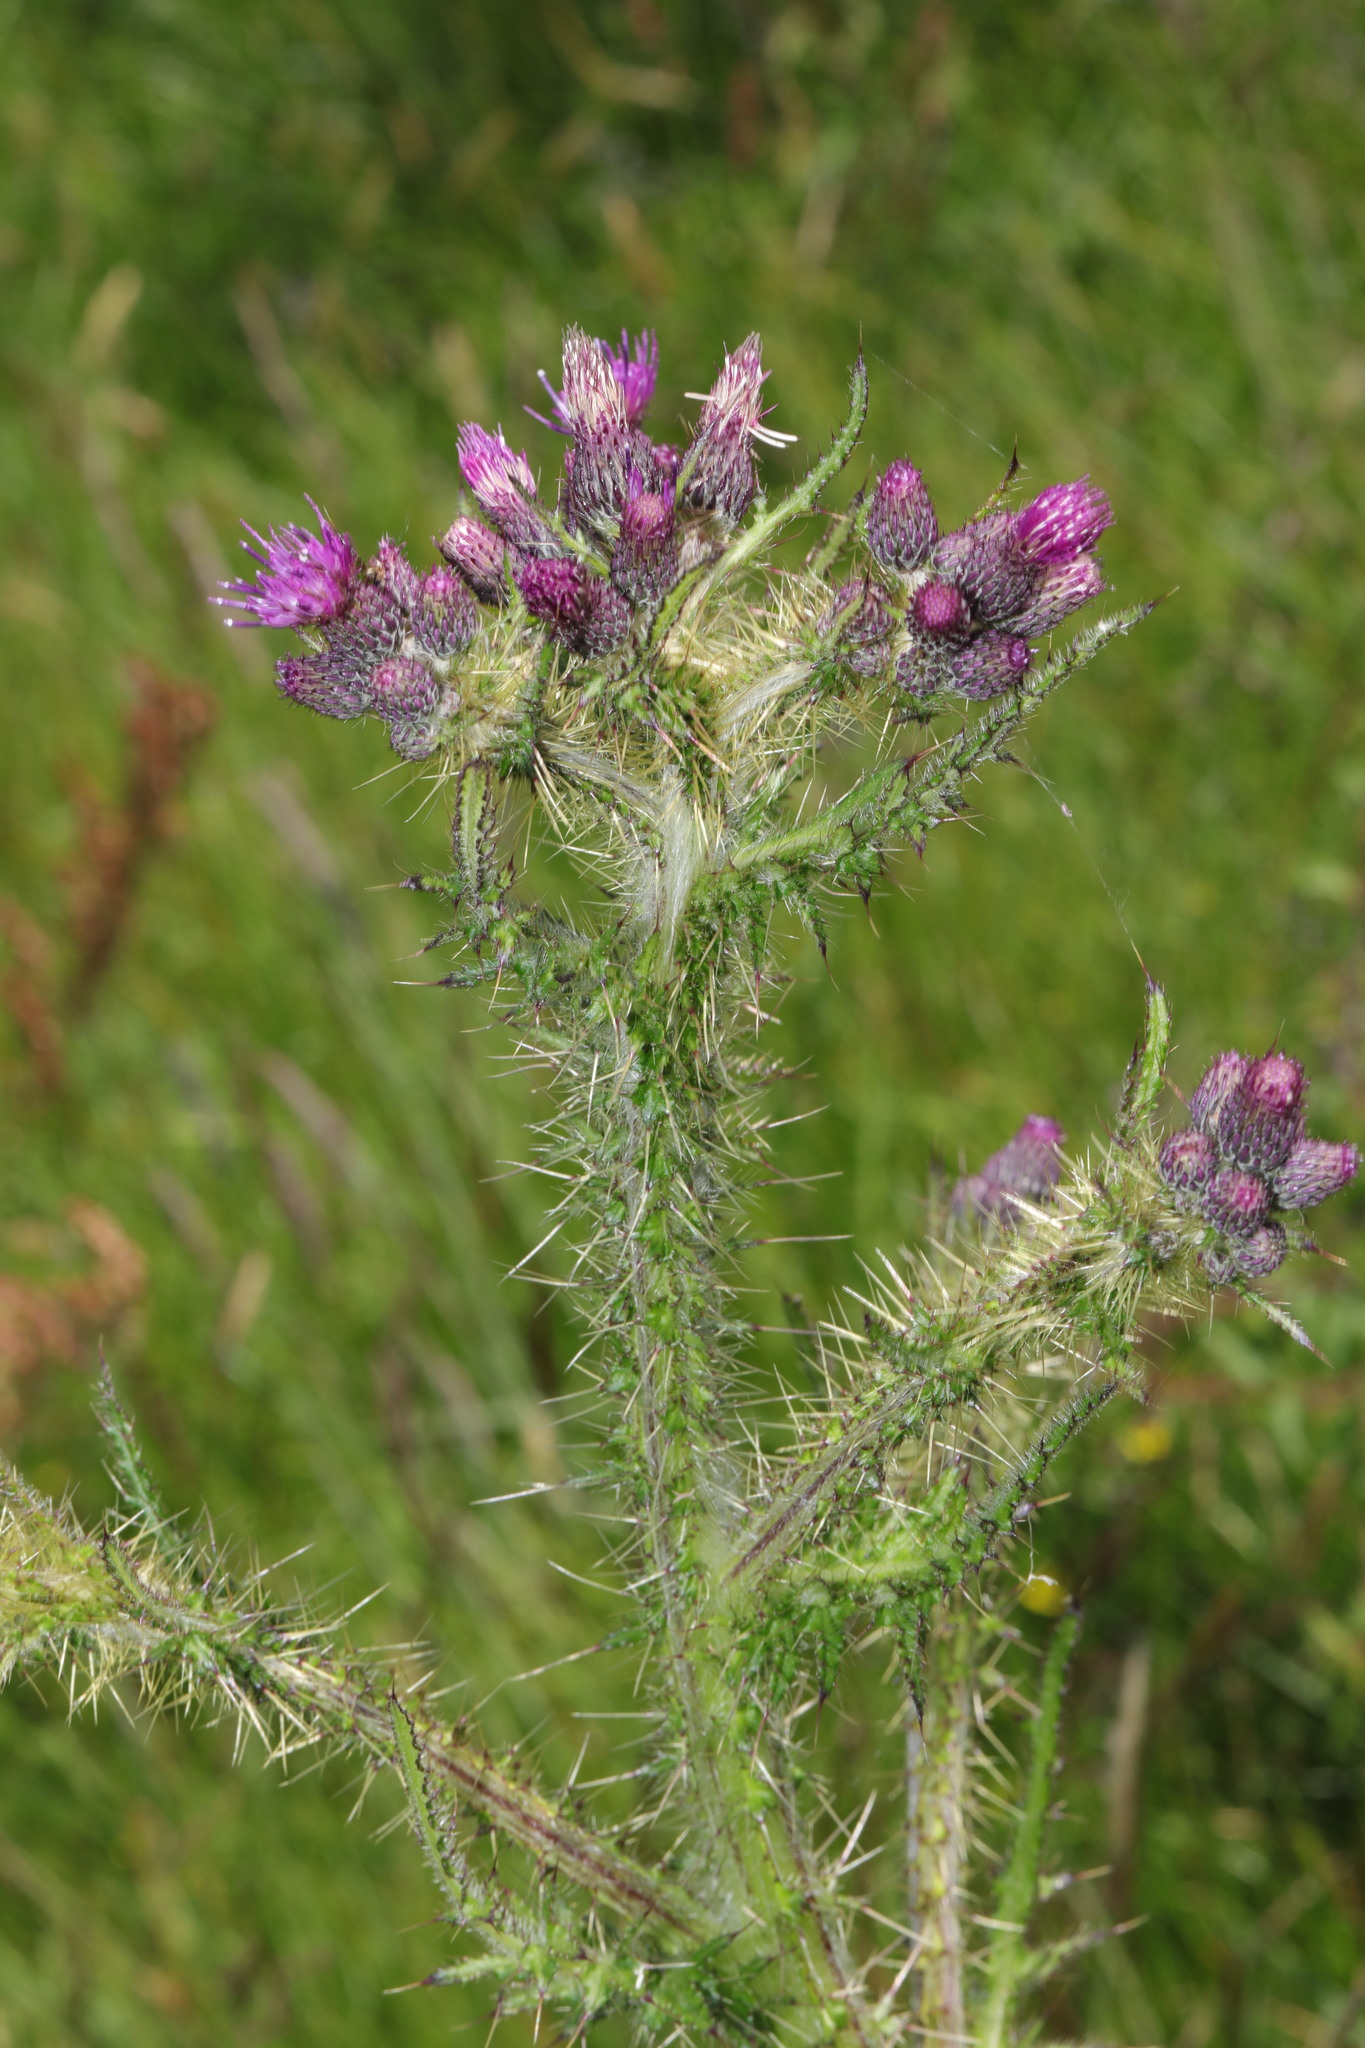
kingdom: Plantae
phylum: Tracheophyta
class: Magnoliopsida
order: Asterales
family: Asteraceae
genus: Cirsium
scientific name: Cirsium palustre
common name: Marsh thistle
